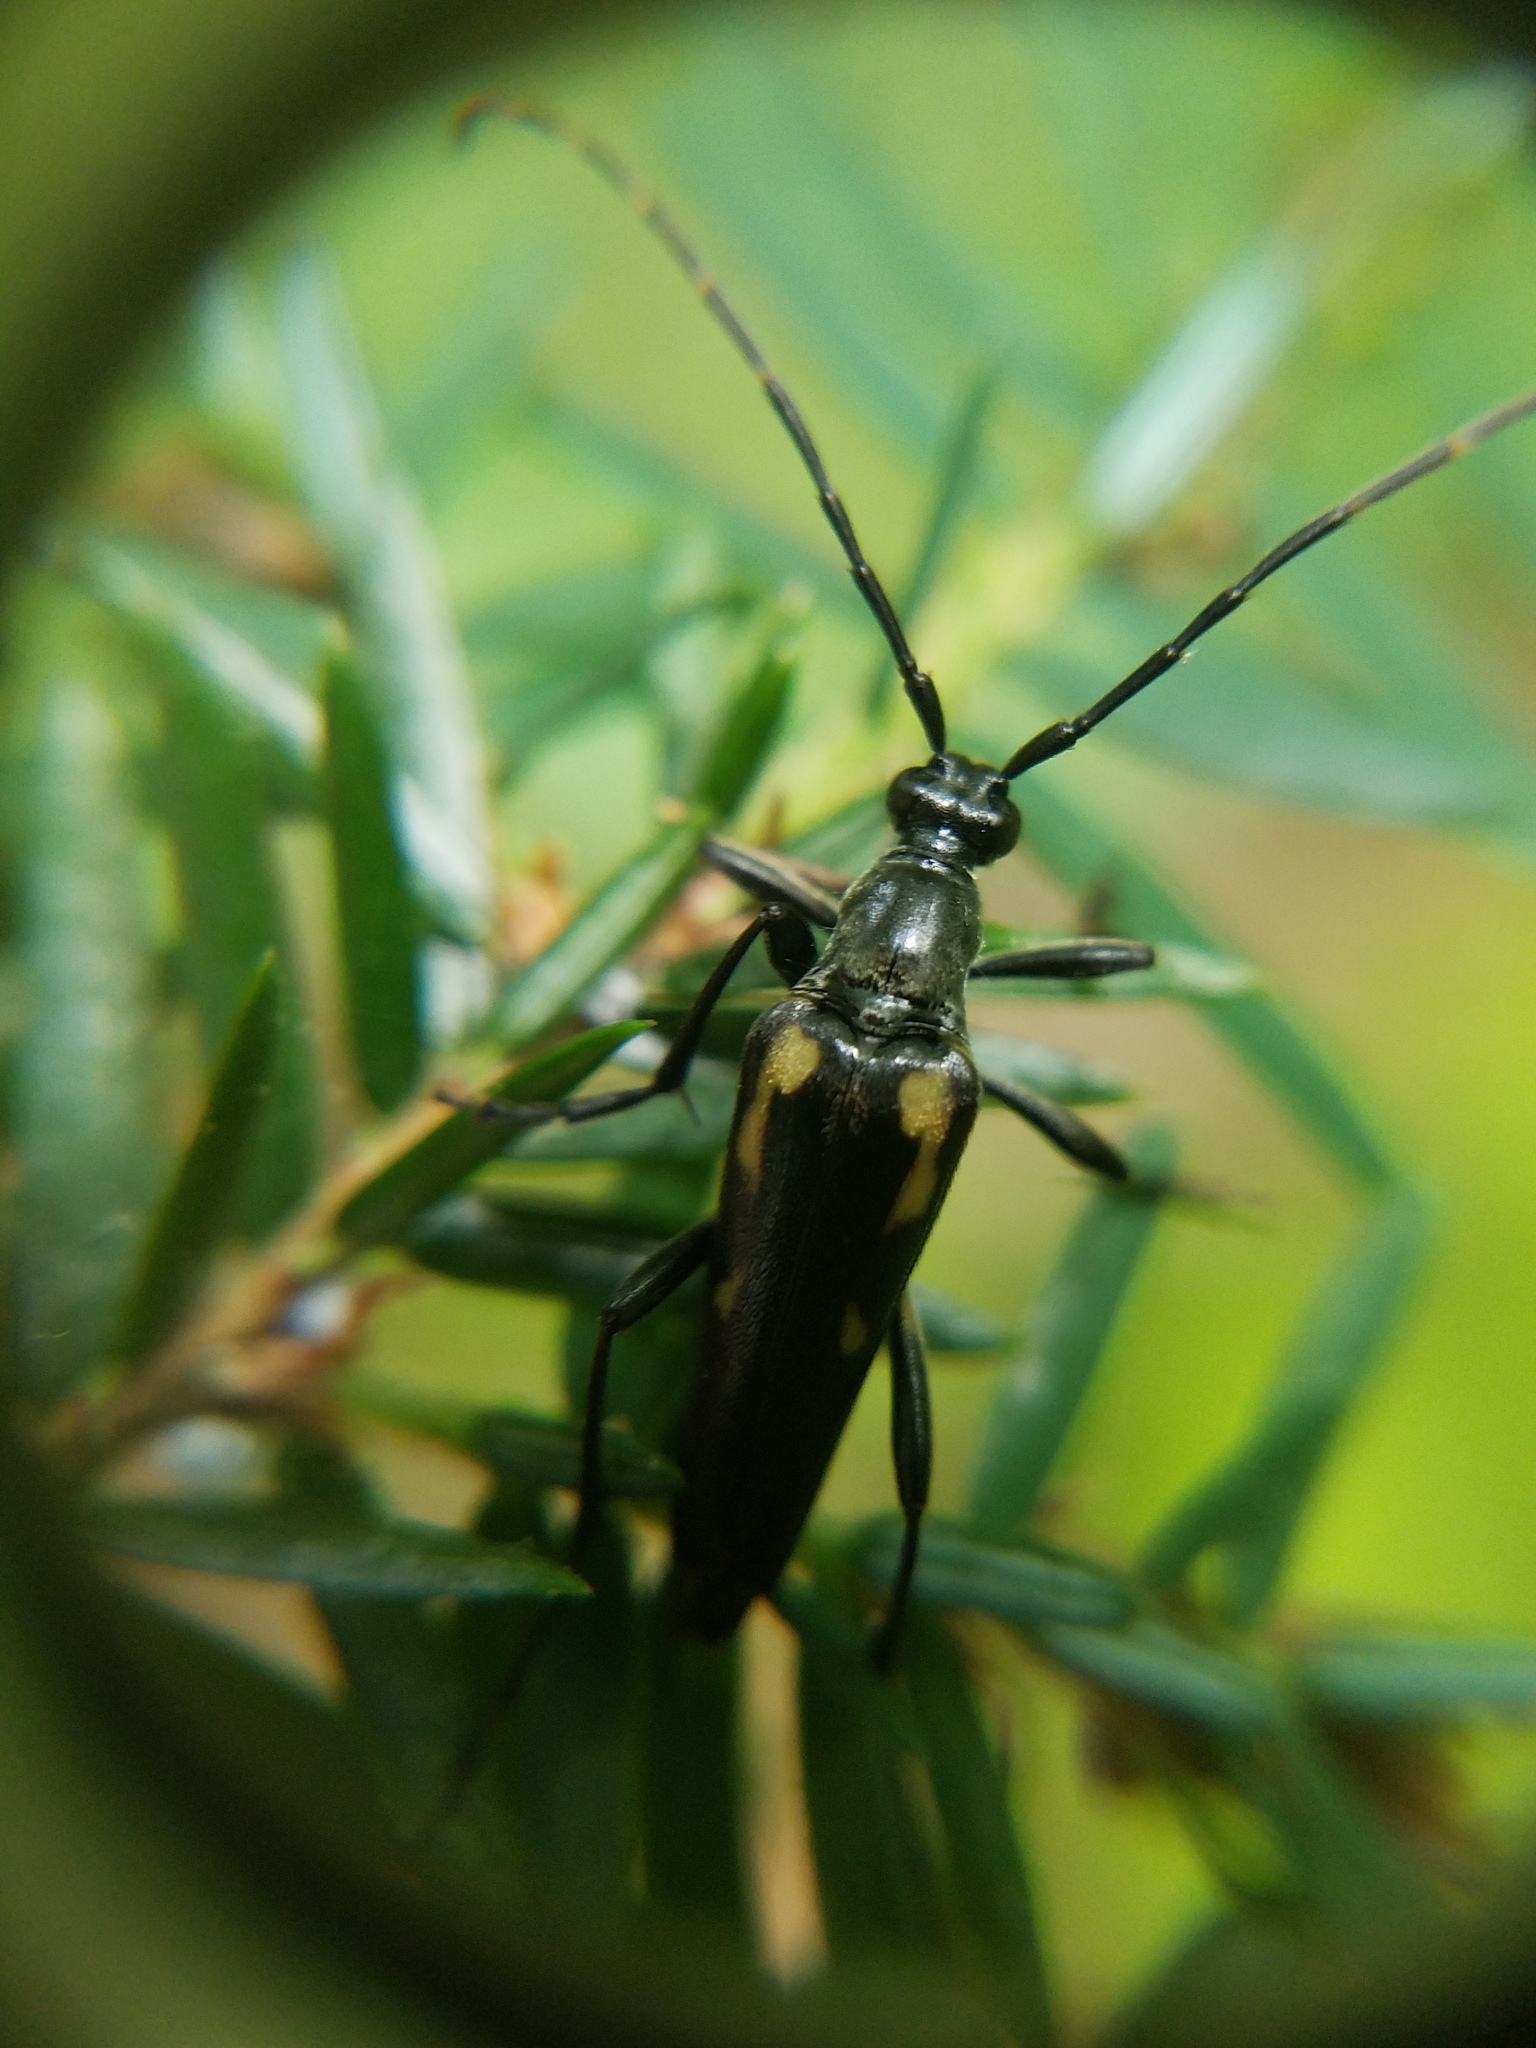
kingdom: Animalia
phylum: Arthropoda
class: Insecta
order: Coleoptera
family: Cerambycidae
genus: Etorofus
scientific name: Etorofus
